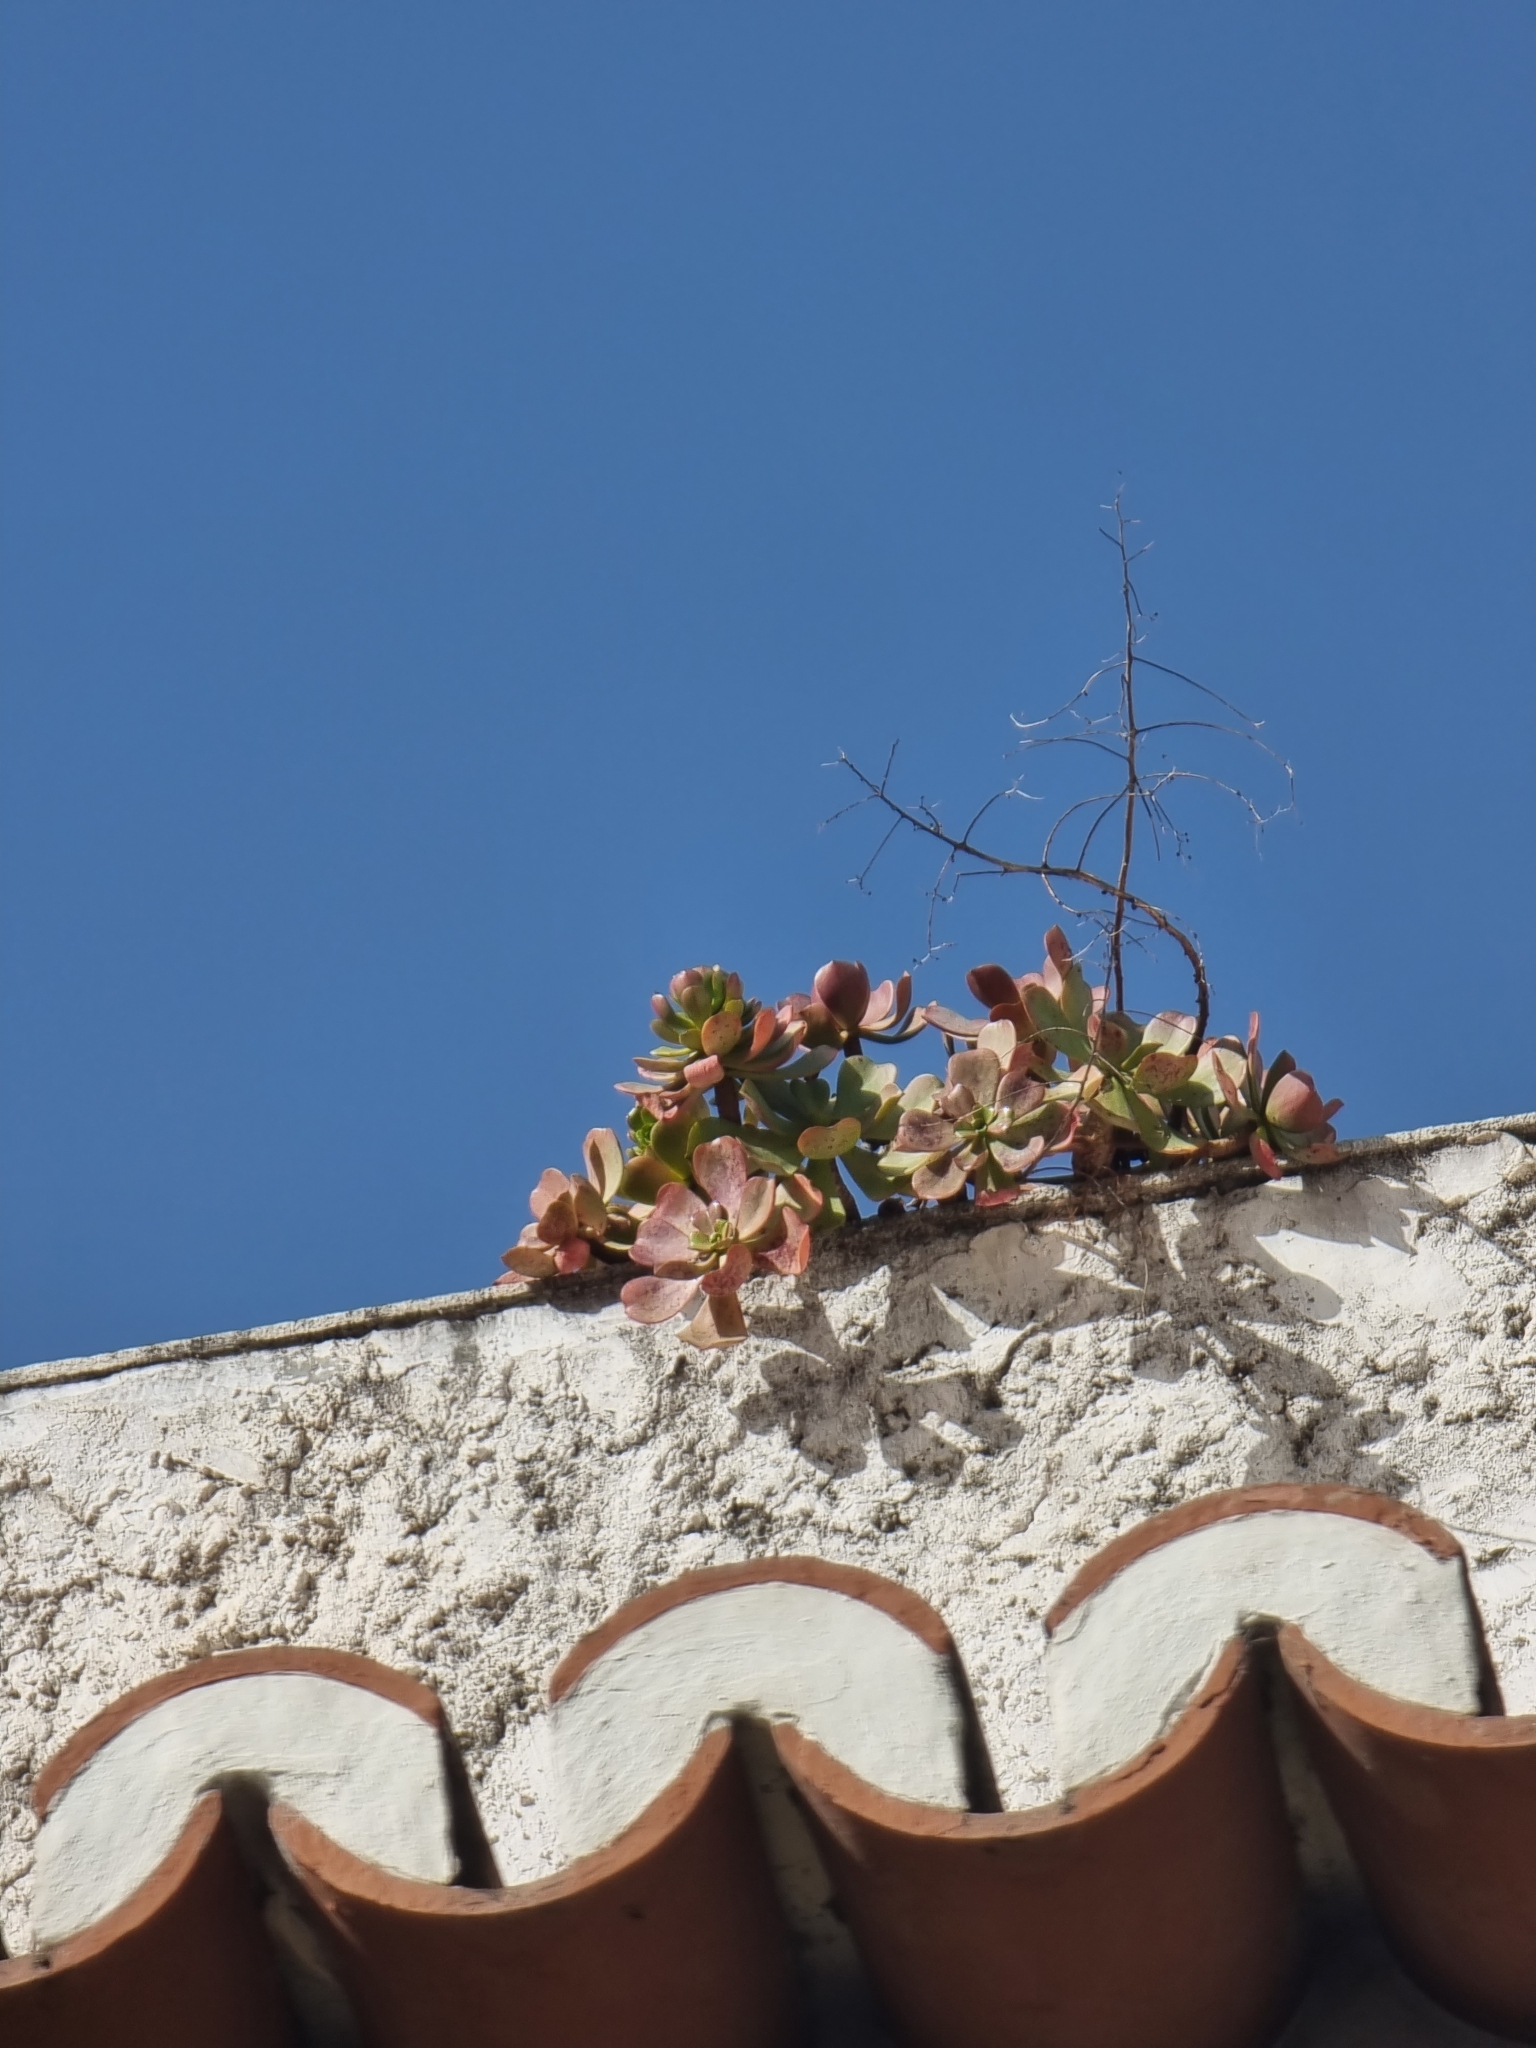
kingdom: Plantae
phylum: Tracheophyta
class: Magnoliopsida
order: Saxifragales
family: Crassulaceae
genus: Aeonium
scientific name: Aeonium glutinosum
